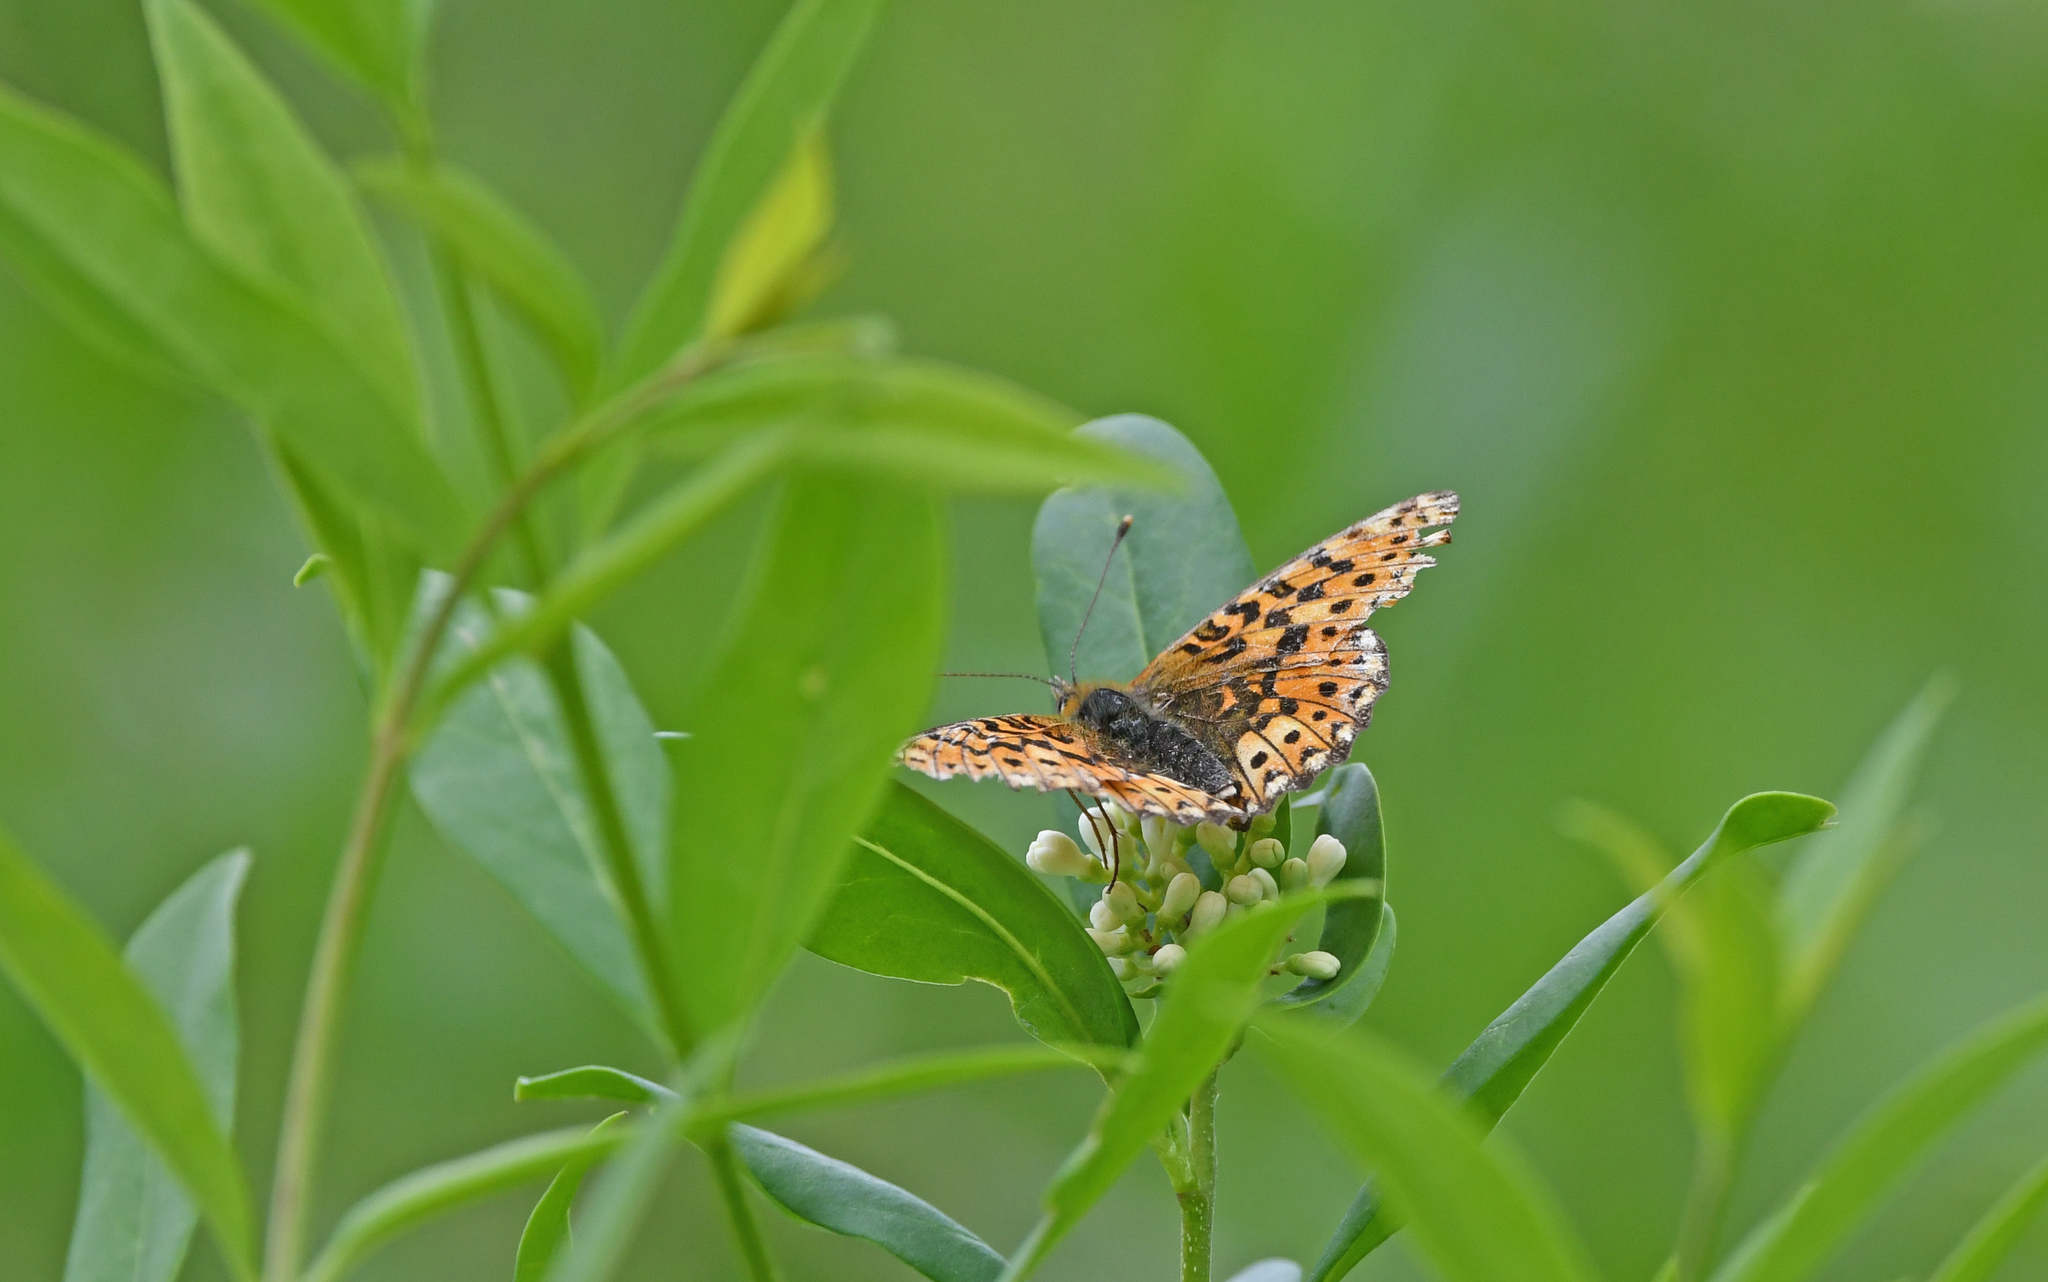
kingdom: Animalia
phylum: Arthropoda
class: Insecta
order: Lepidoptera
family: Nymphalidae
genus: Clossiana
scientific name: Clossiana euphrosyne
